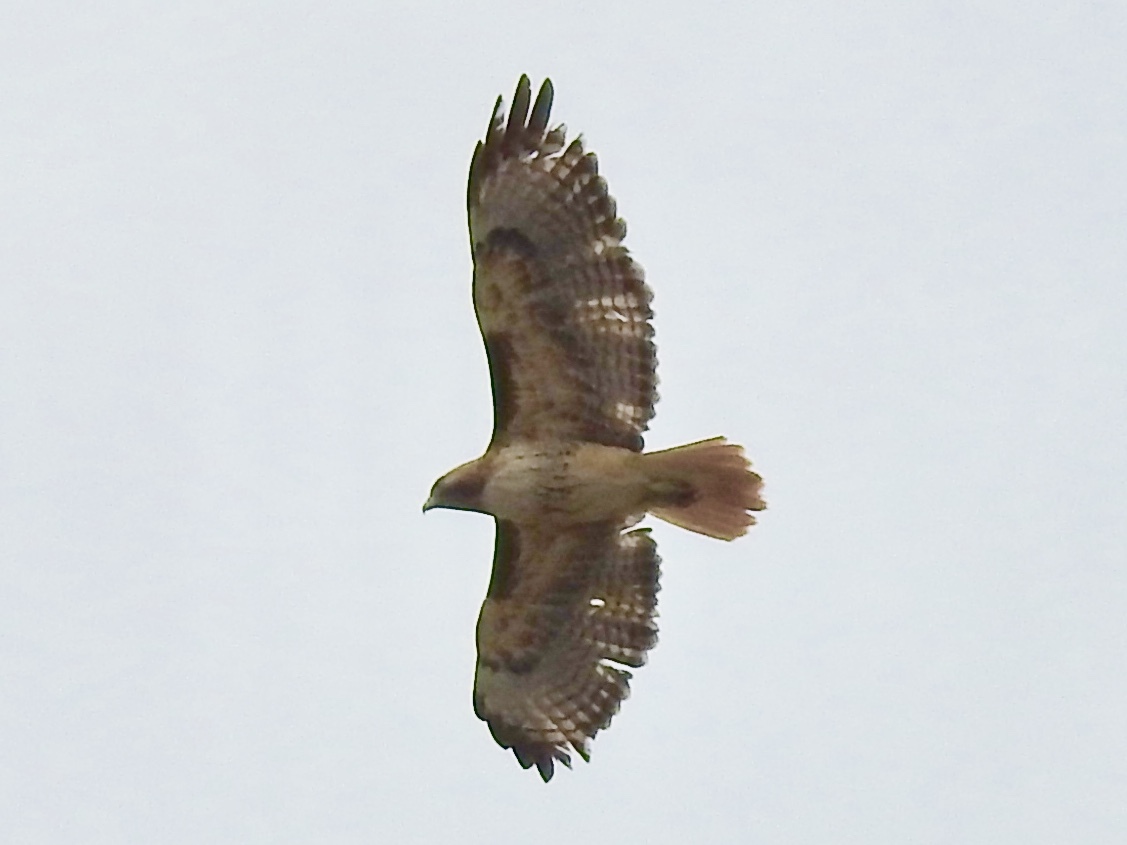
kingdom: Animalia
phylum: Chordata
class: Aves
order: Accipitriformes
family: Accipitridae
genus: Buteo
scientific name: Buteo jamaicensis
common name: Red-tailed hawk
